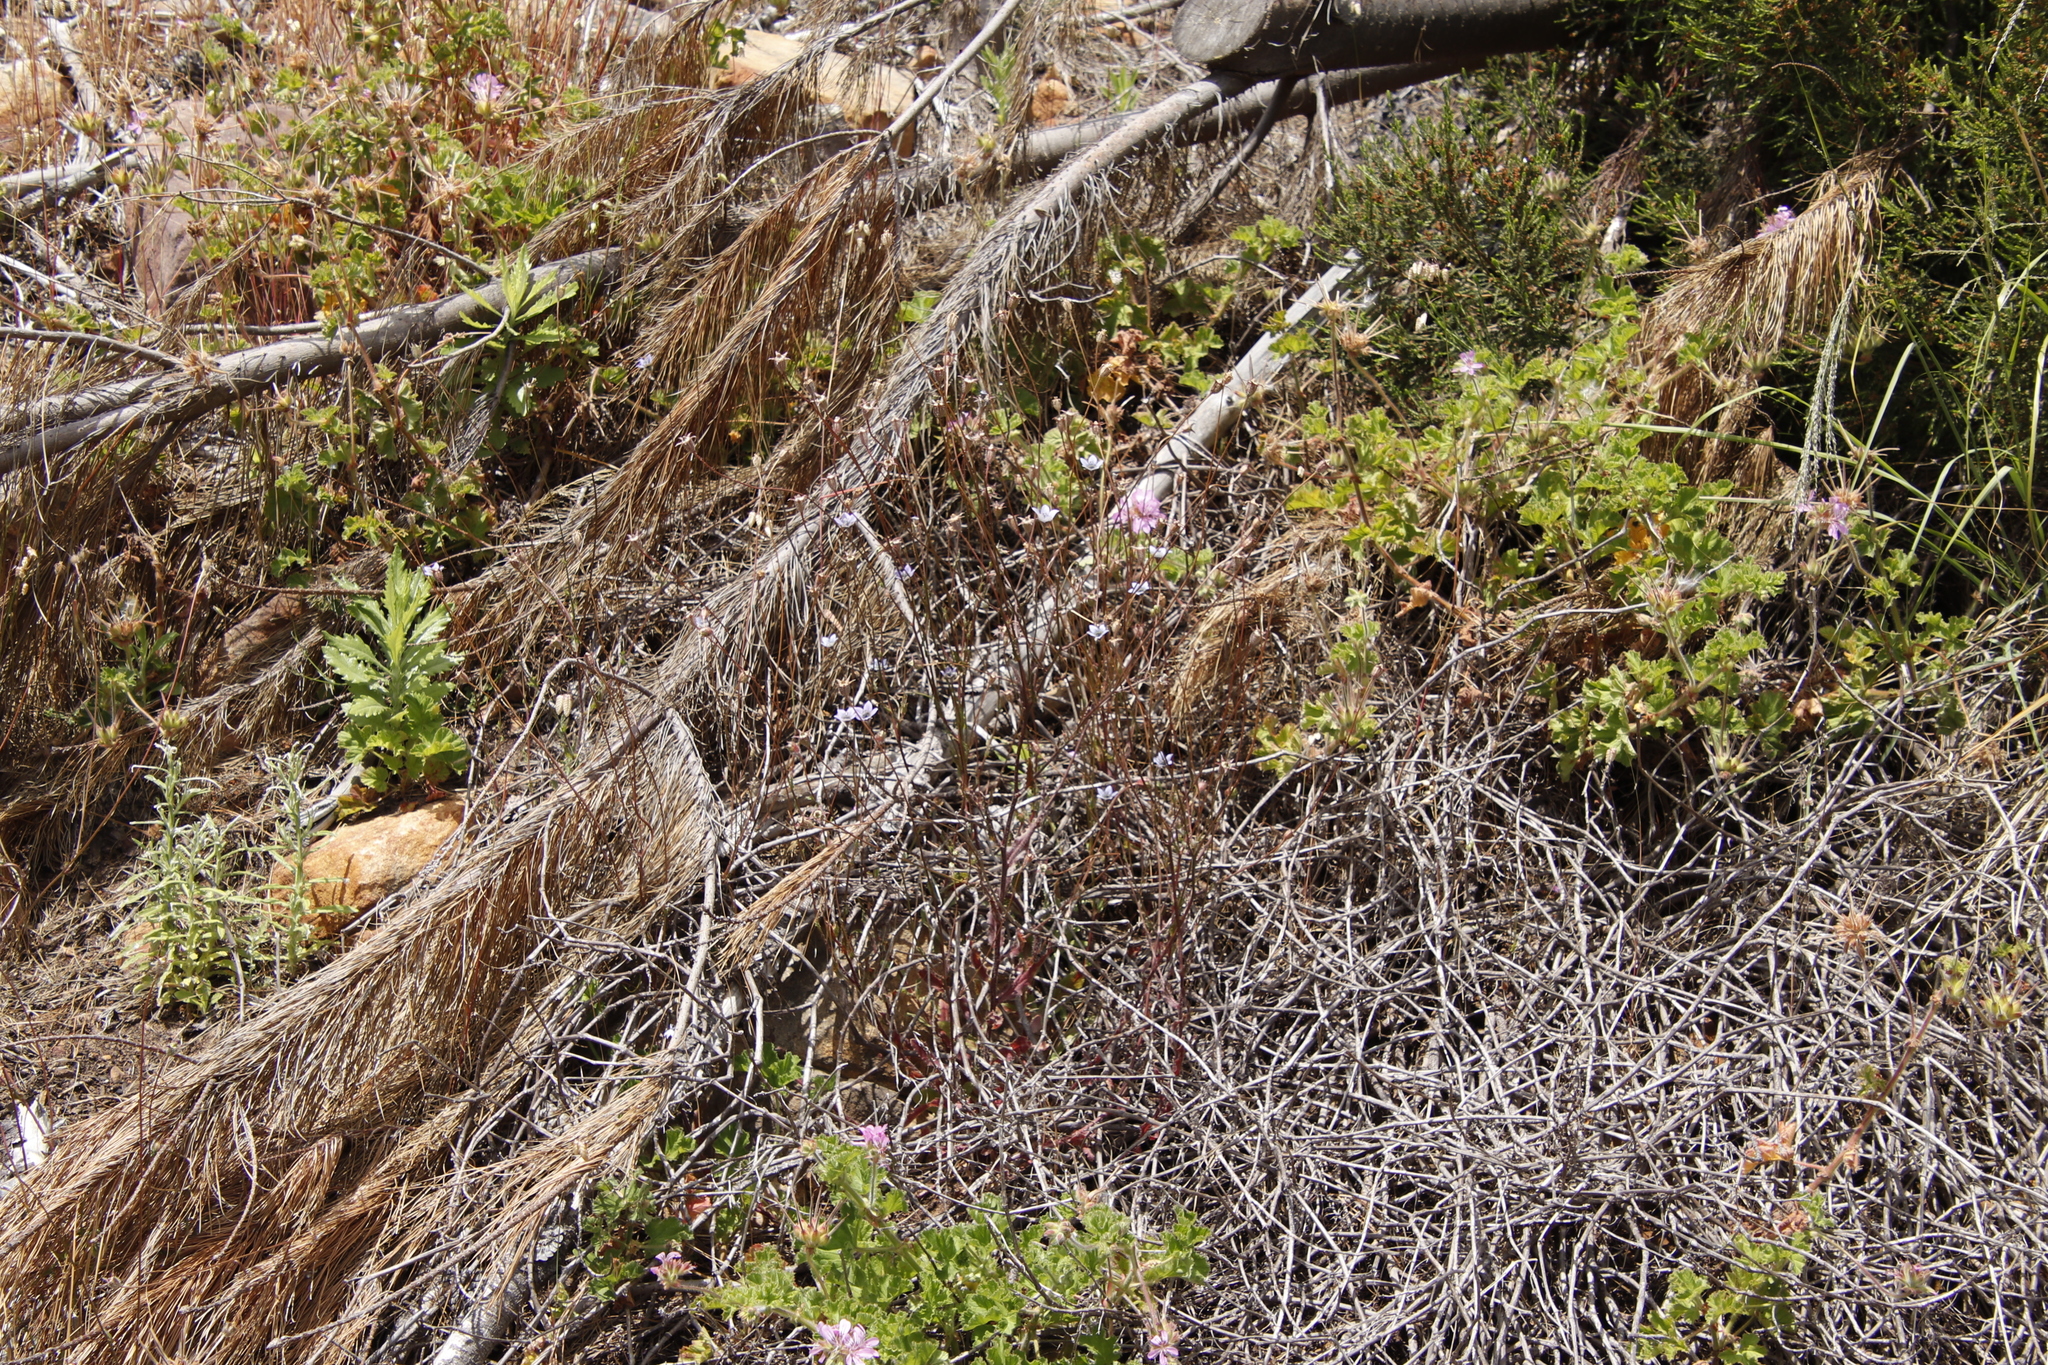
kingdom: Plantae
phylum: Tracheophyta
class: Magnoliopsida
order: Asterales
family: Campanulaceae
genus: Wahlenbergia
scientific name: Wahlenbergia capensis
